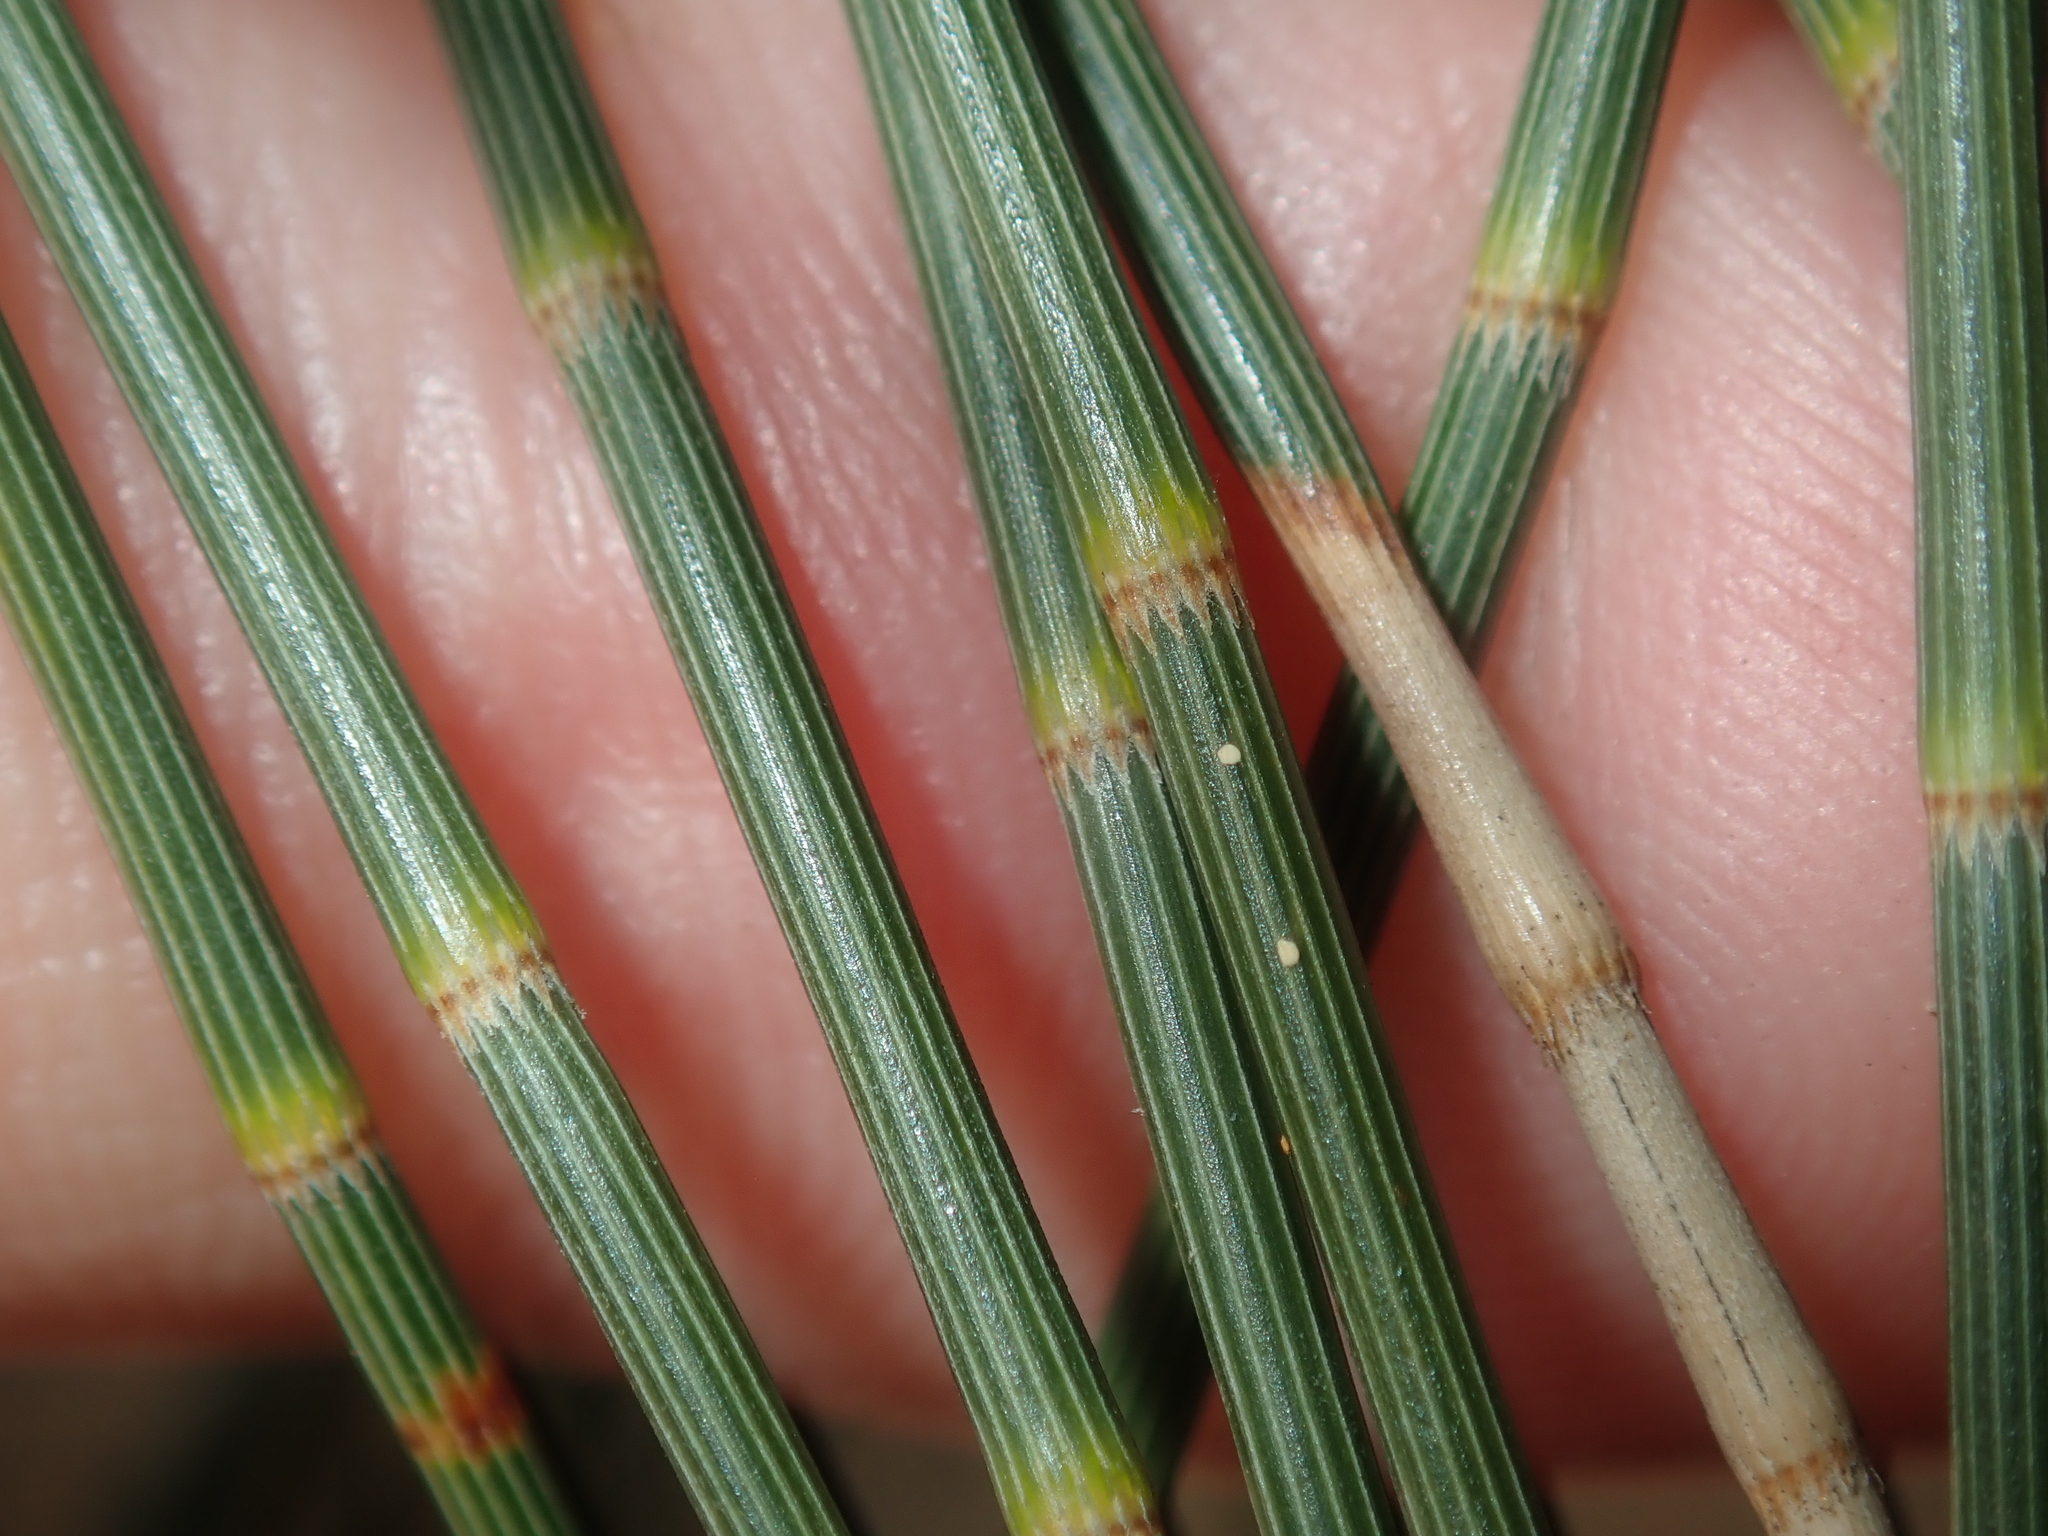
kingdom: Plantae
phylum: Tracheophyta
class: Magnoliopsida
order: Fagales
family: Casuarinaceae
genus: Casuarina
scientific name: Casuarina obesa
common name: Swamp she-oak
